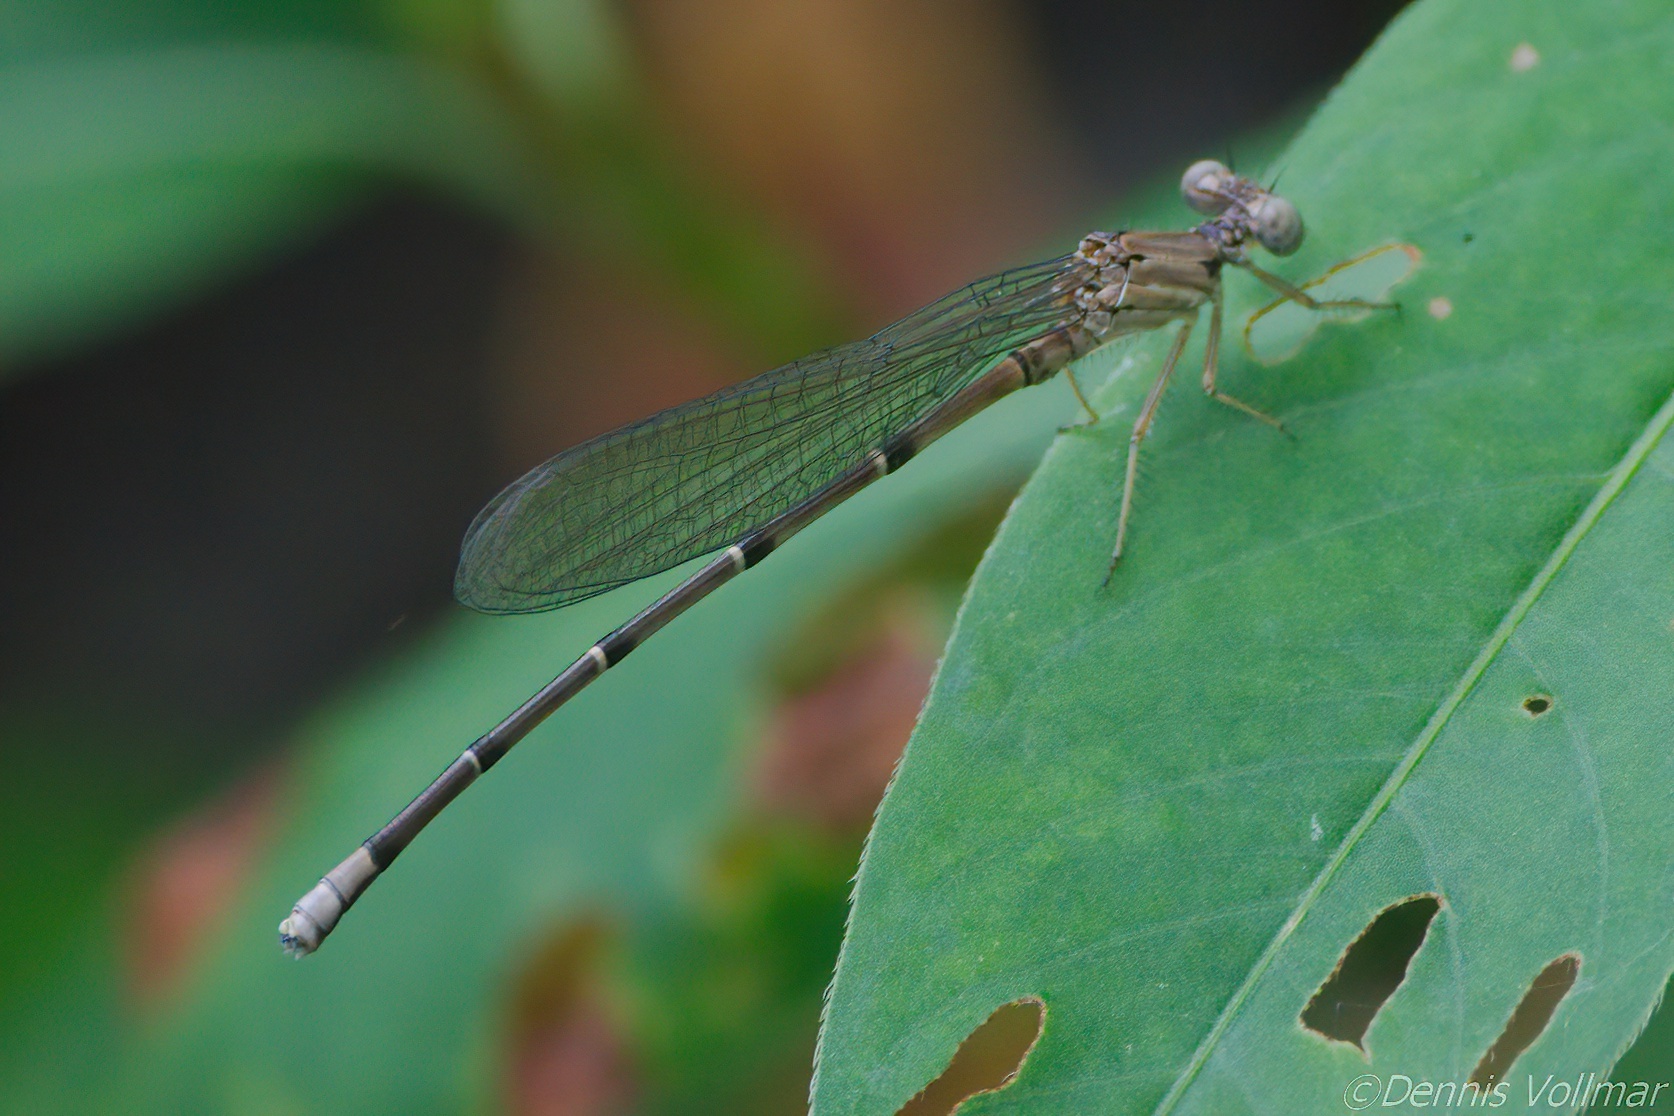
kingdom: Animalia
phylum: Arthropoda
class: Insecta
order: Odonata
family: Coenagrionidae
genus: Argia
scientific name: Argia apicalis
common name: Blue-fronted dancer
